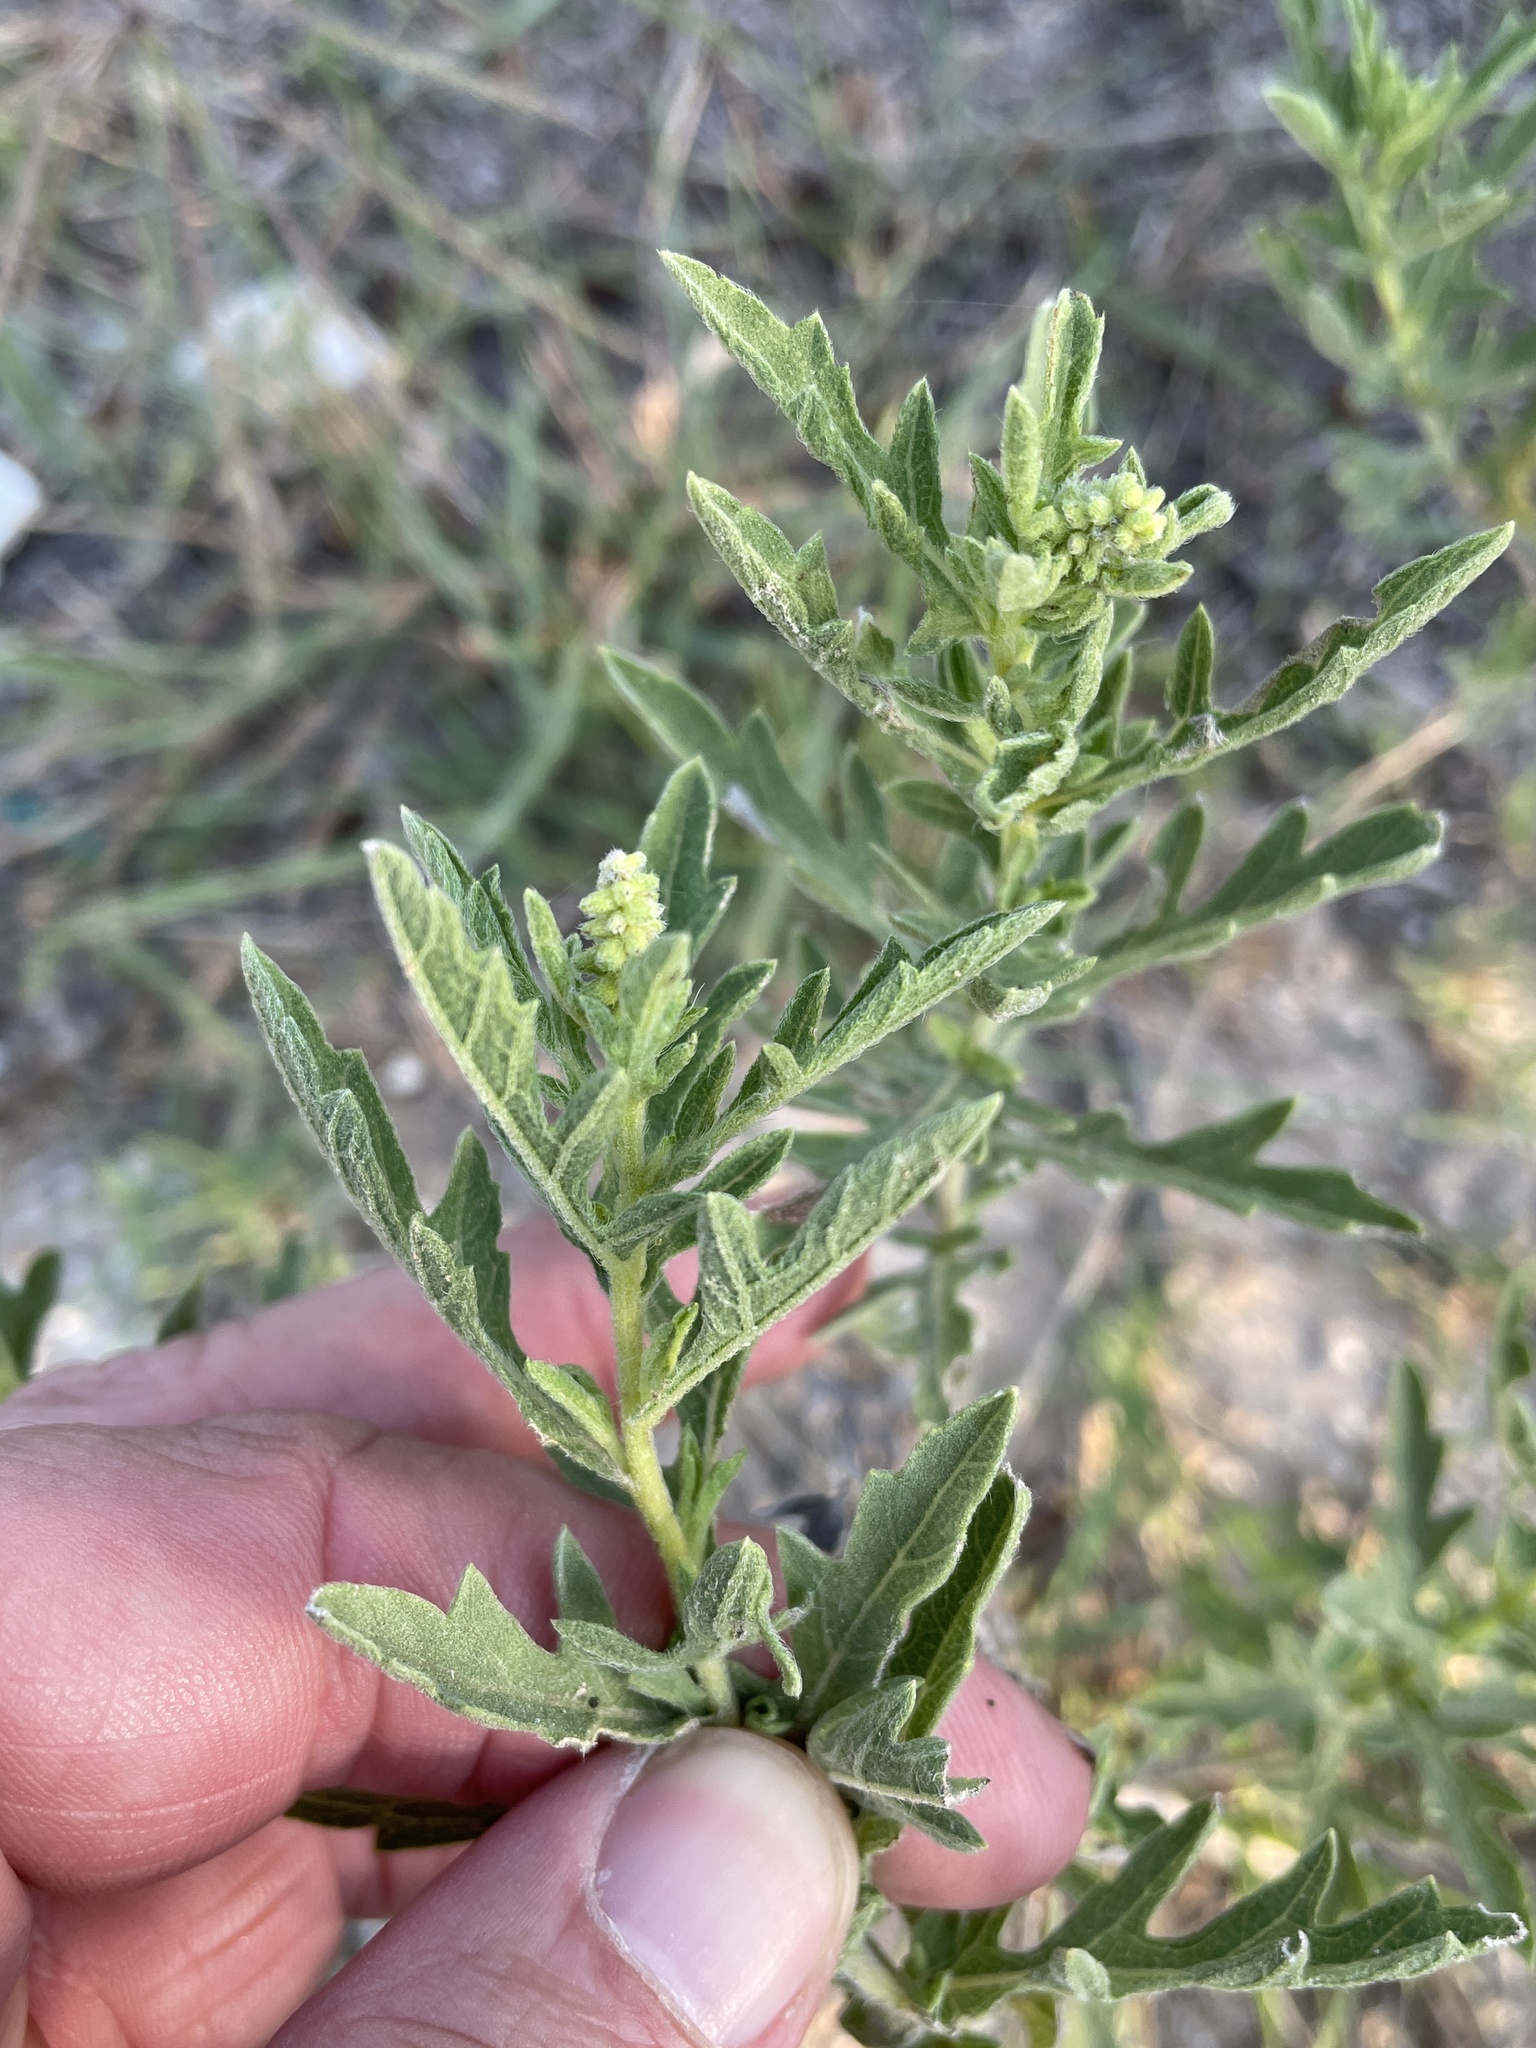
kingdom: Plantae
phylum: Tracheophyta
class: Magnoliopsida
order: Asterales
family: Asteraceae
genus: Ambrosia
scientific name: Ambrosia psilostachya
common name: Perennial ragweed
